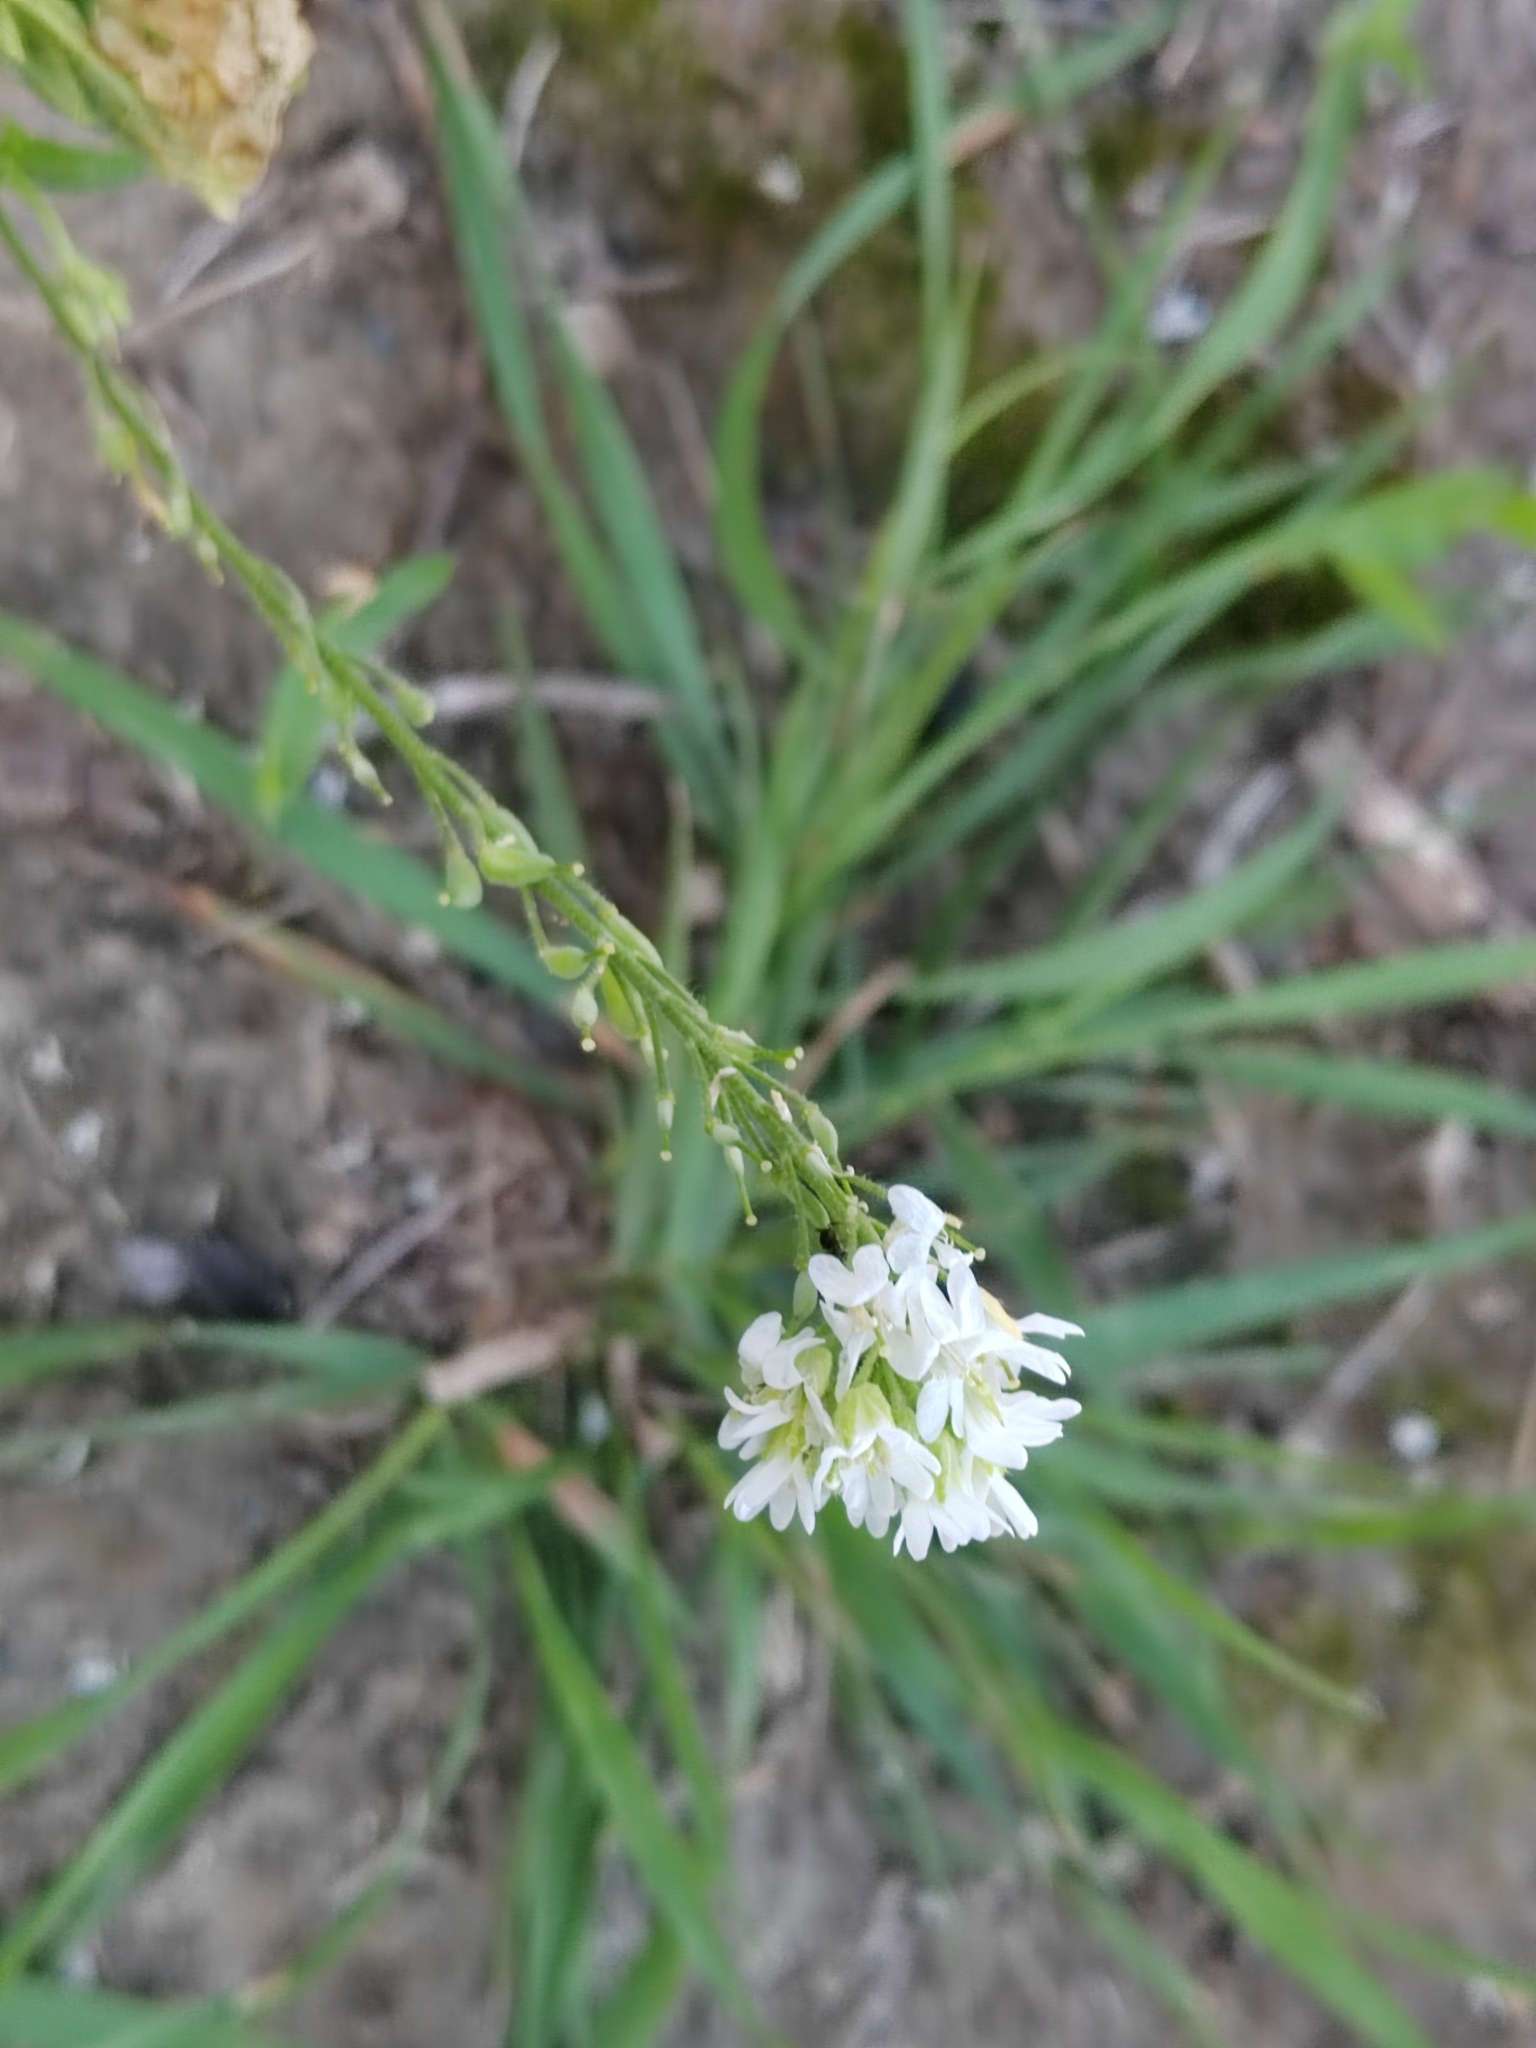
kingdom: Plantae
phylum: Tracheophyta
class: Magnoliopsida
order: Brassicales
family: Brassicaceae
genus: Berteroa
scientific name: Berteroa incana
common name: Hoary alison
